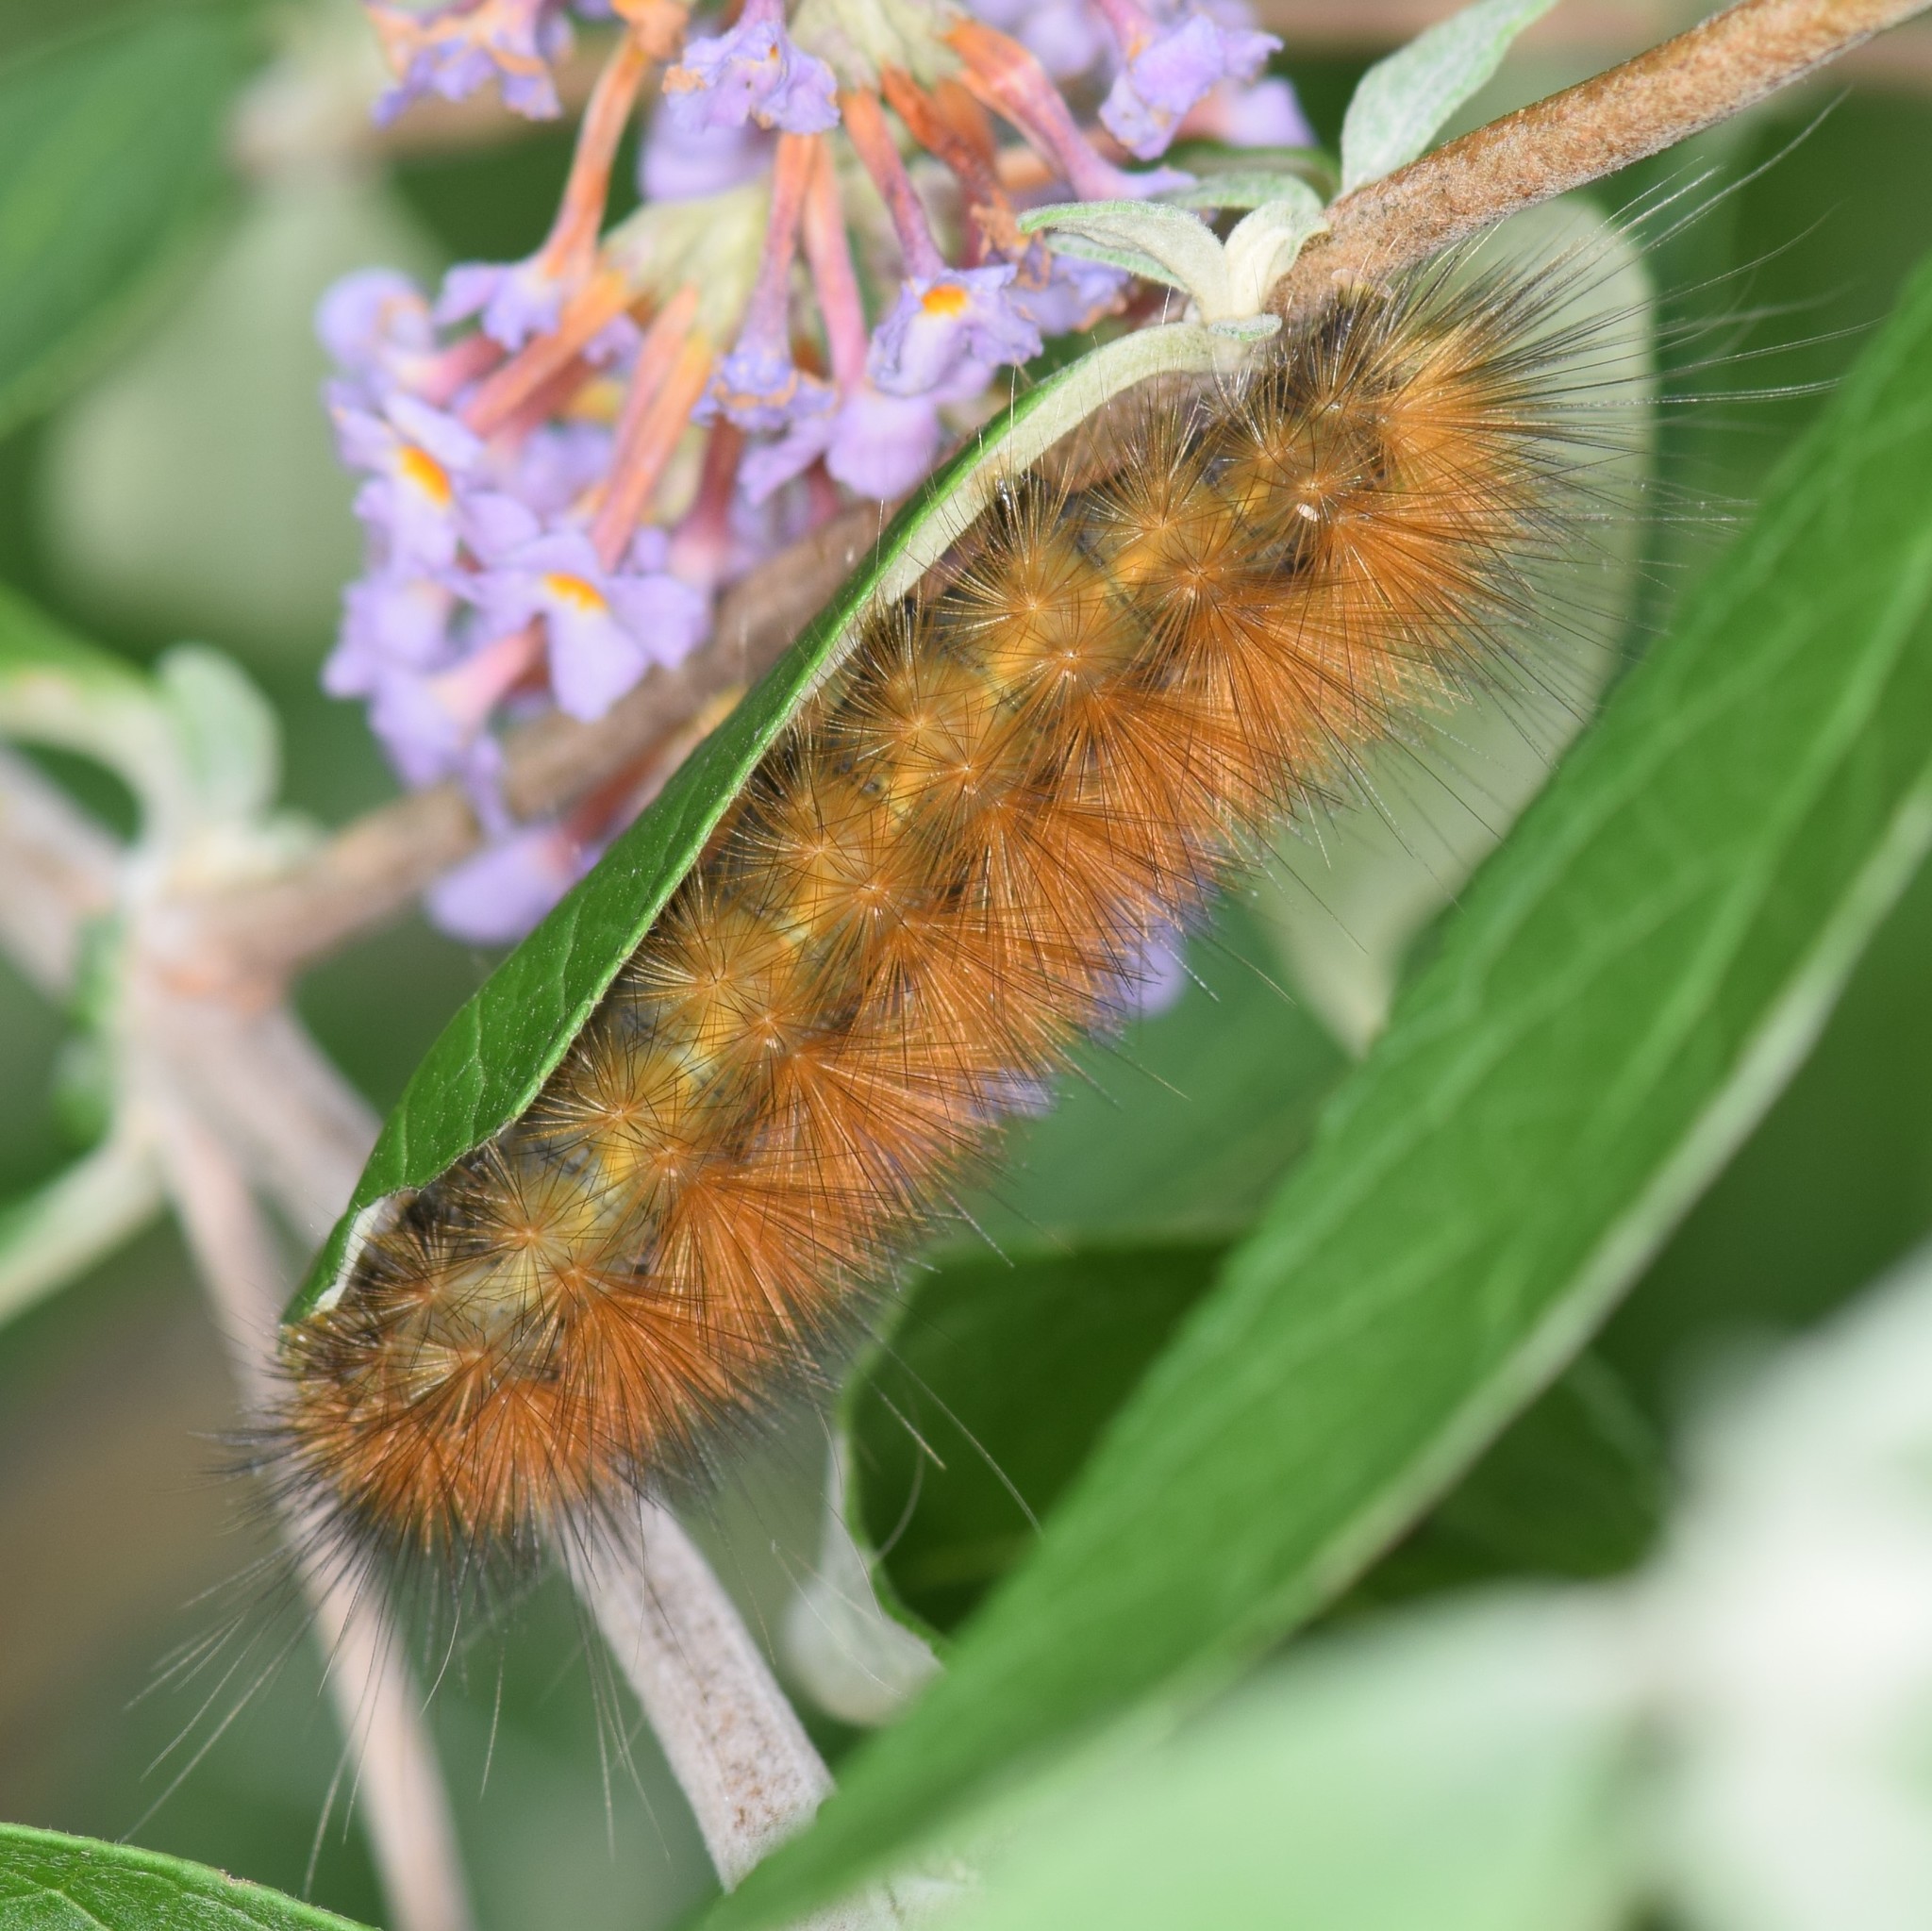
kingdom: Animalia
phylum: Arthropoda
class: Insecta
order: Lepidoptera
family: Erebidae
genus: Spilosoma
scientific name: Spilosoma virginica
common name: Virginia tiger moth
